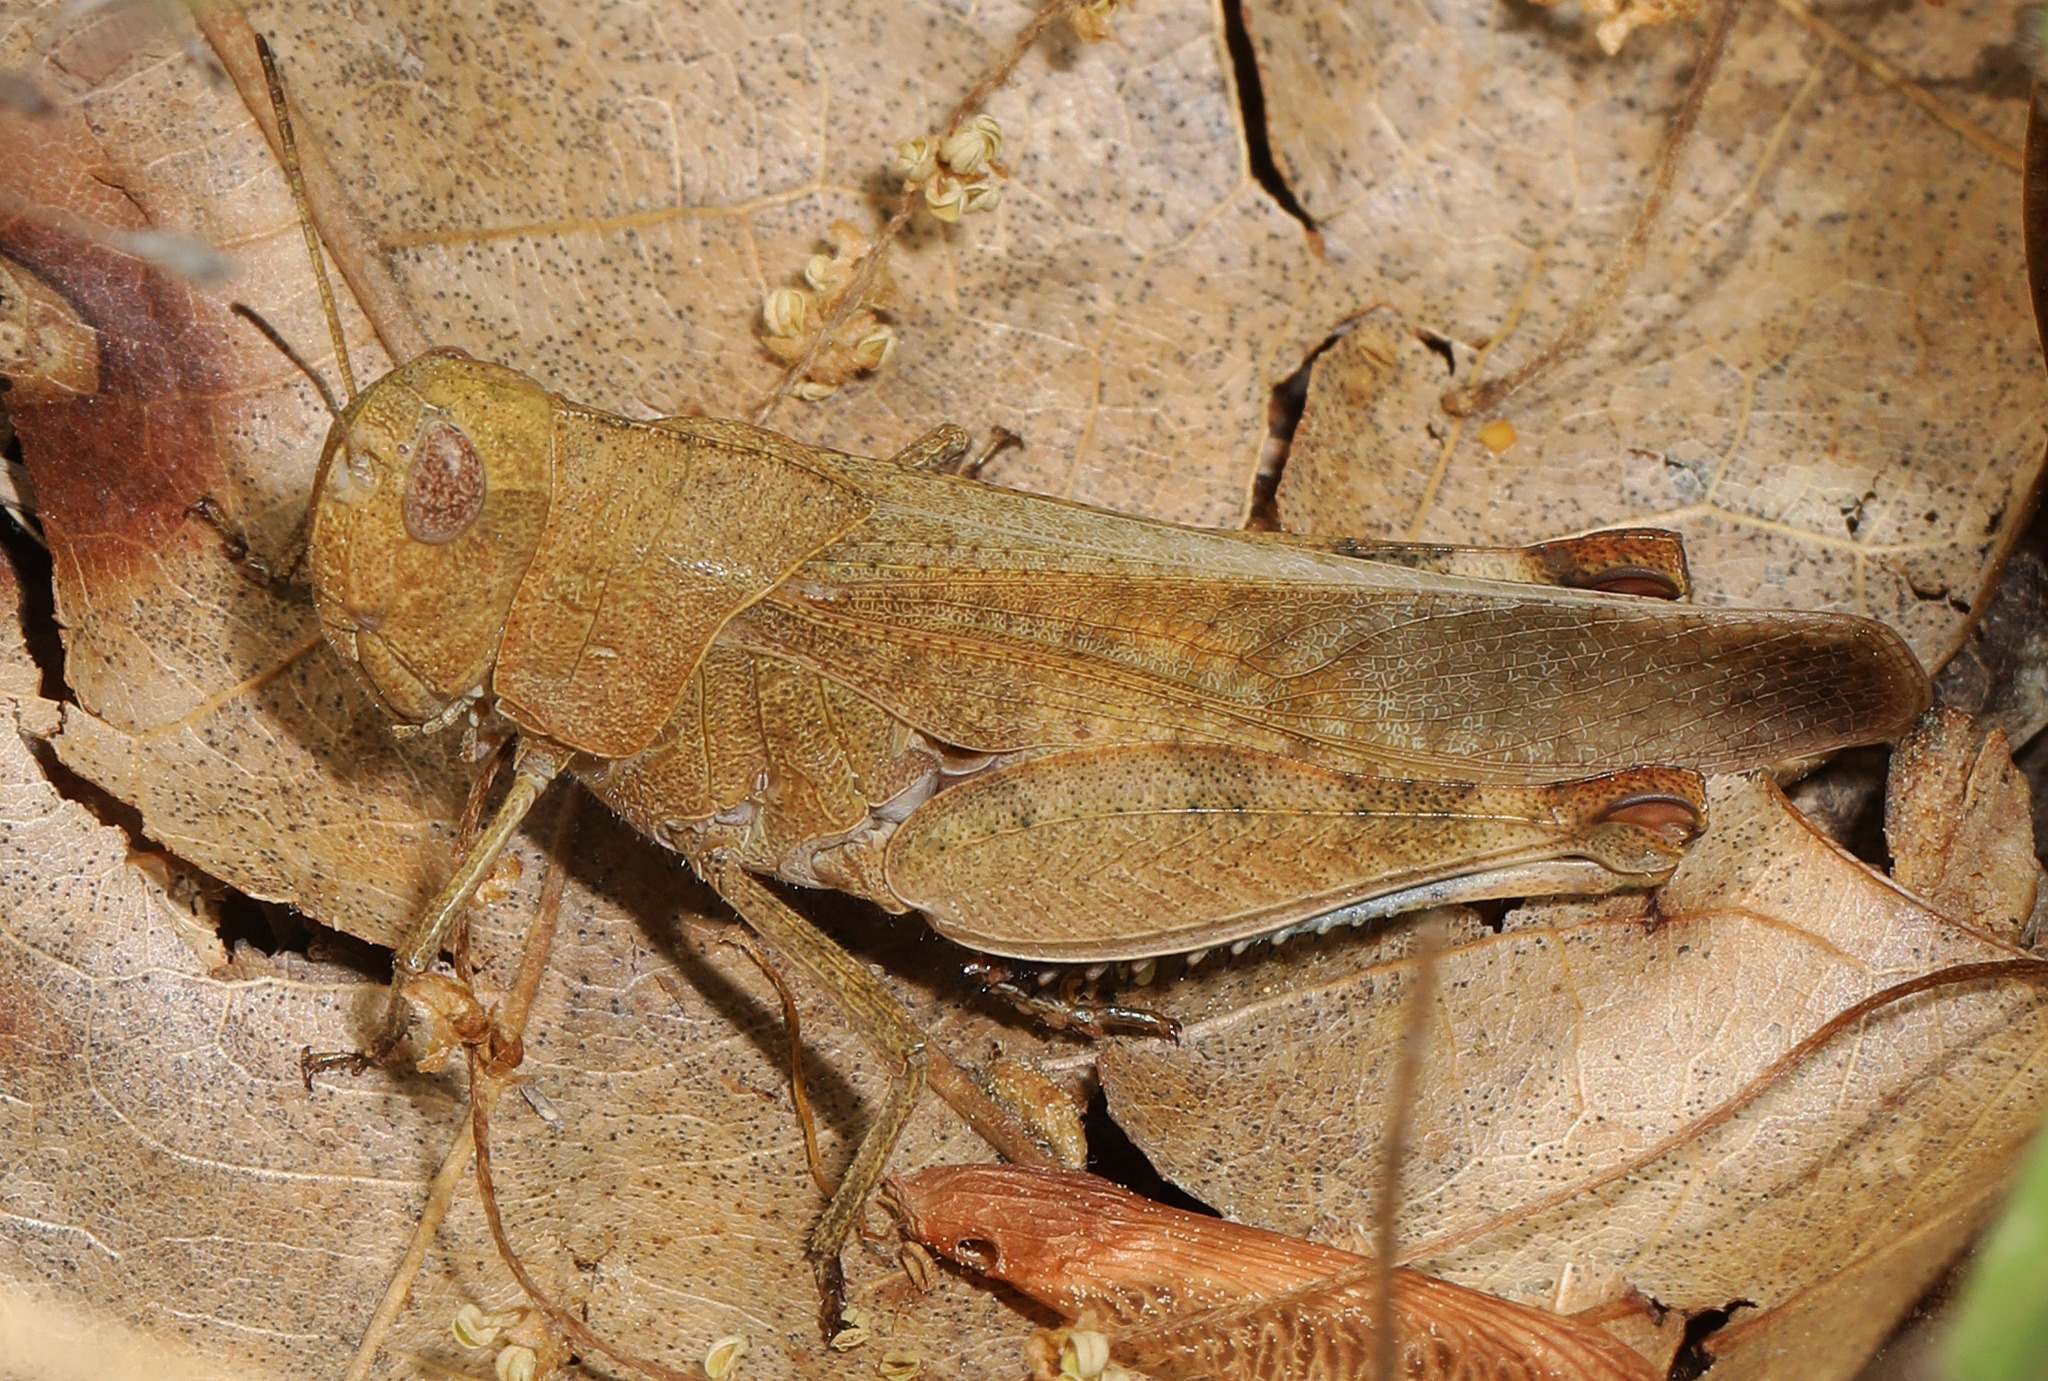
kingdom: Animalia
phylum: Arthropoda
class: Insecta
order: Orthoptera
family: Acrididae
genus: Arphia
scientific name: Arphia sulphurea
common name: Spring yellow-winged locust
